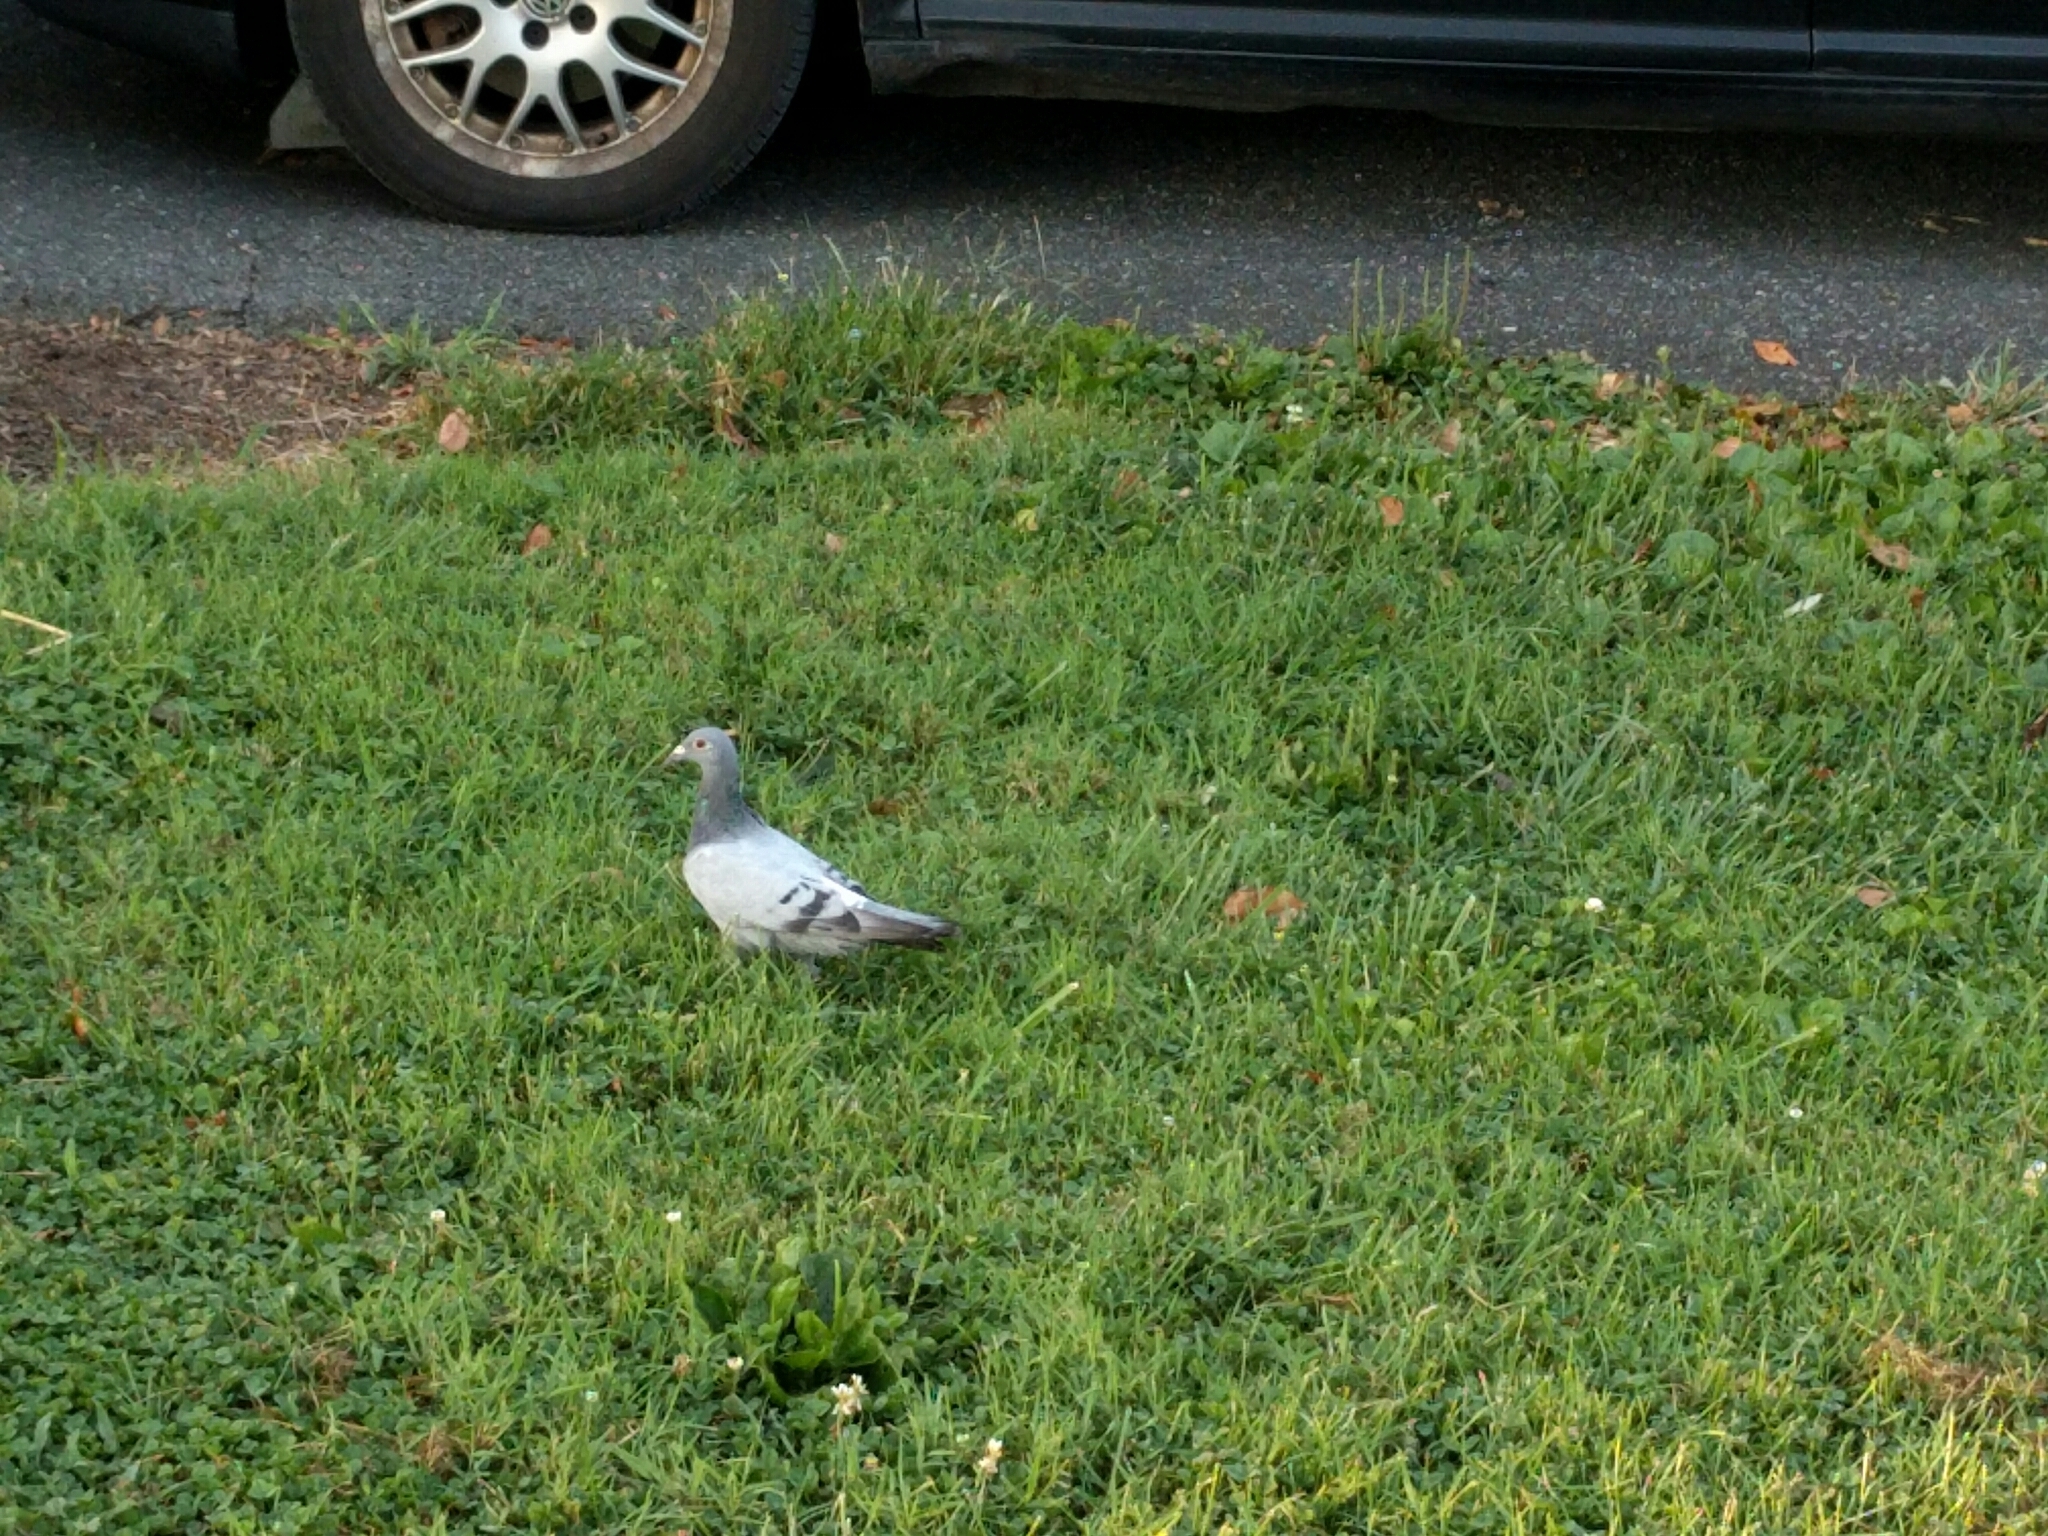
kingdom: Animalia
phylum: Chordata
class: Aves
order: Columbiformes
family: Columbidae
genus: Columba
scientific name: Columba livia
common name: Rock pigeon
